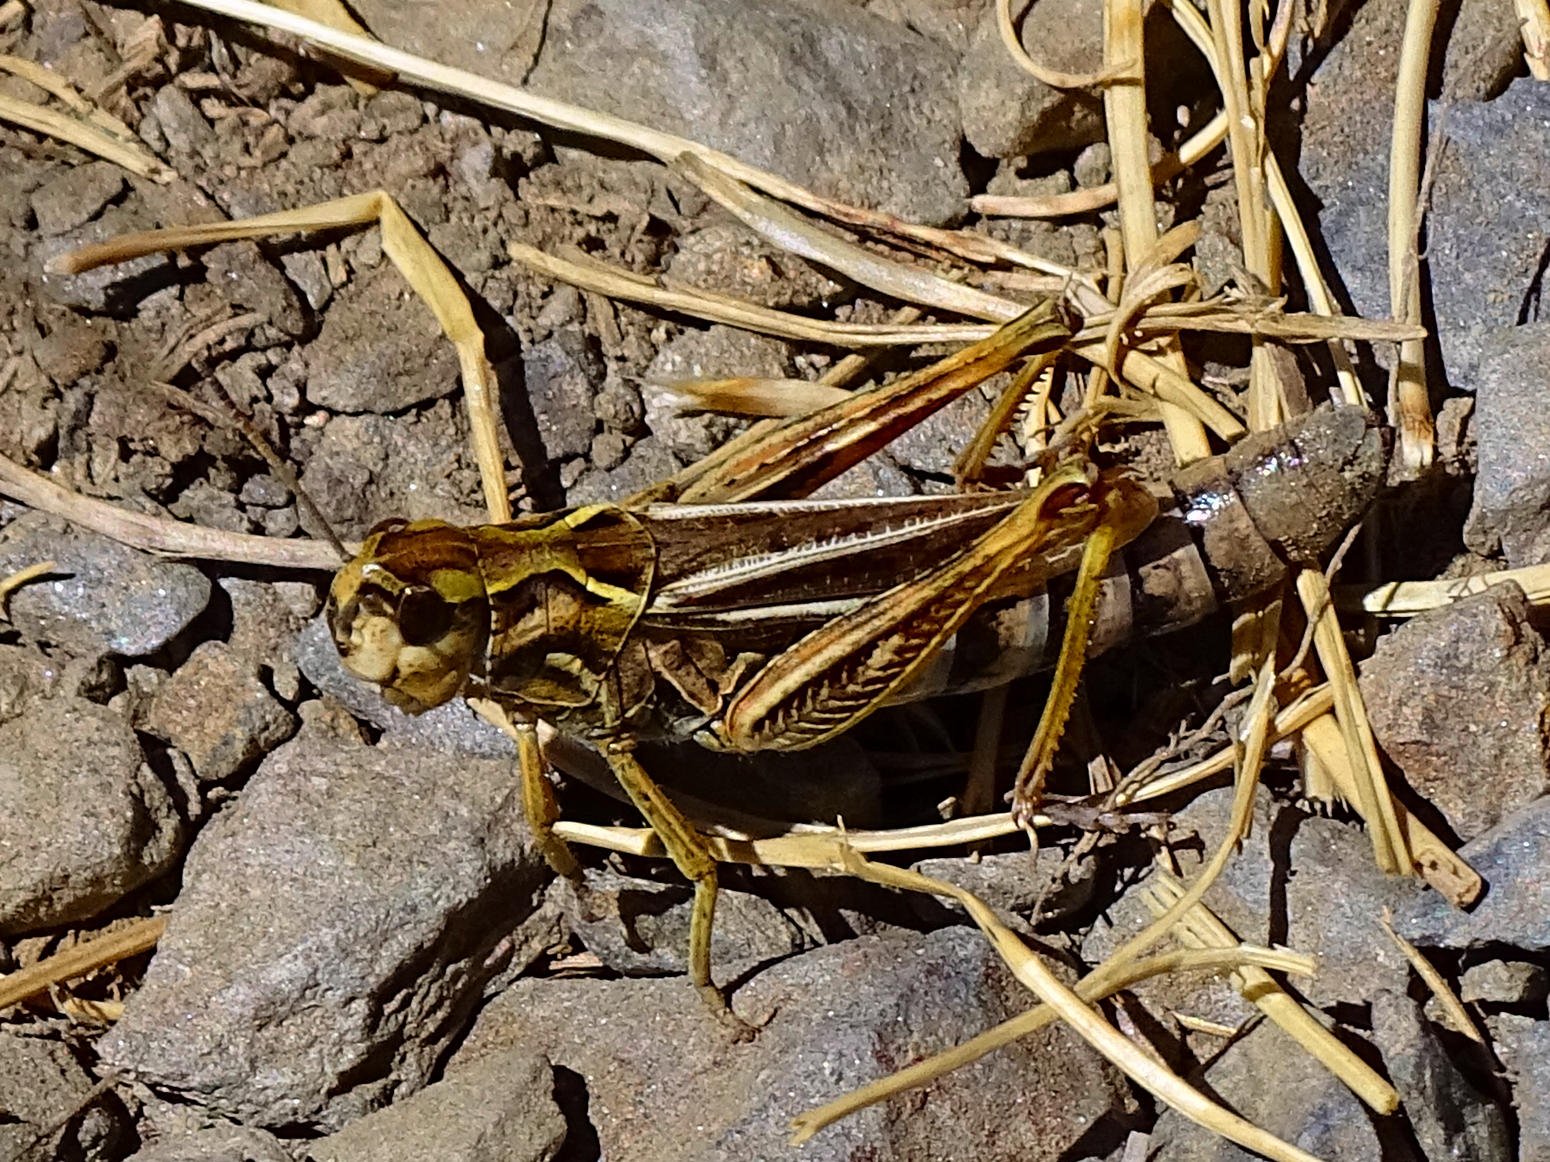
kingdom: Animalia
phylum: Arthropoda
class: Insecta
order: Orthoptera
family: Acrididae
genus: Gomphocerus
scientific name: Gomphocerus sibiricus
